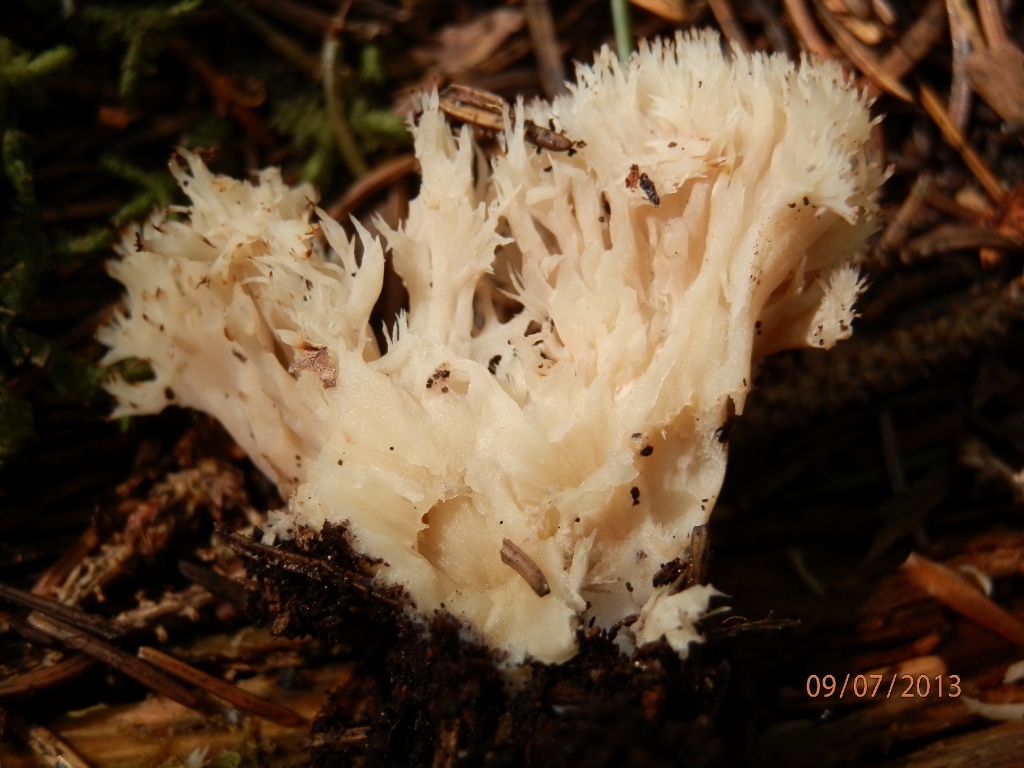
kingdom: Fungi
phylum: Basidiomycota
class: Agaricomycetes
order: Cantharellales
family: Hydnaceae
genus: Clavulina
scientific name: Clavulina coralloides
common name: Crested coral
